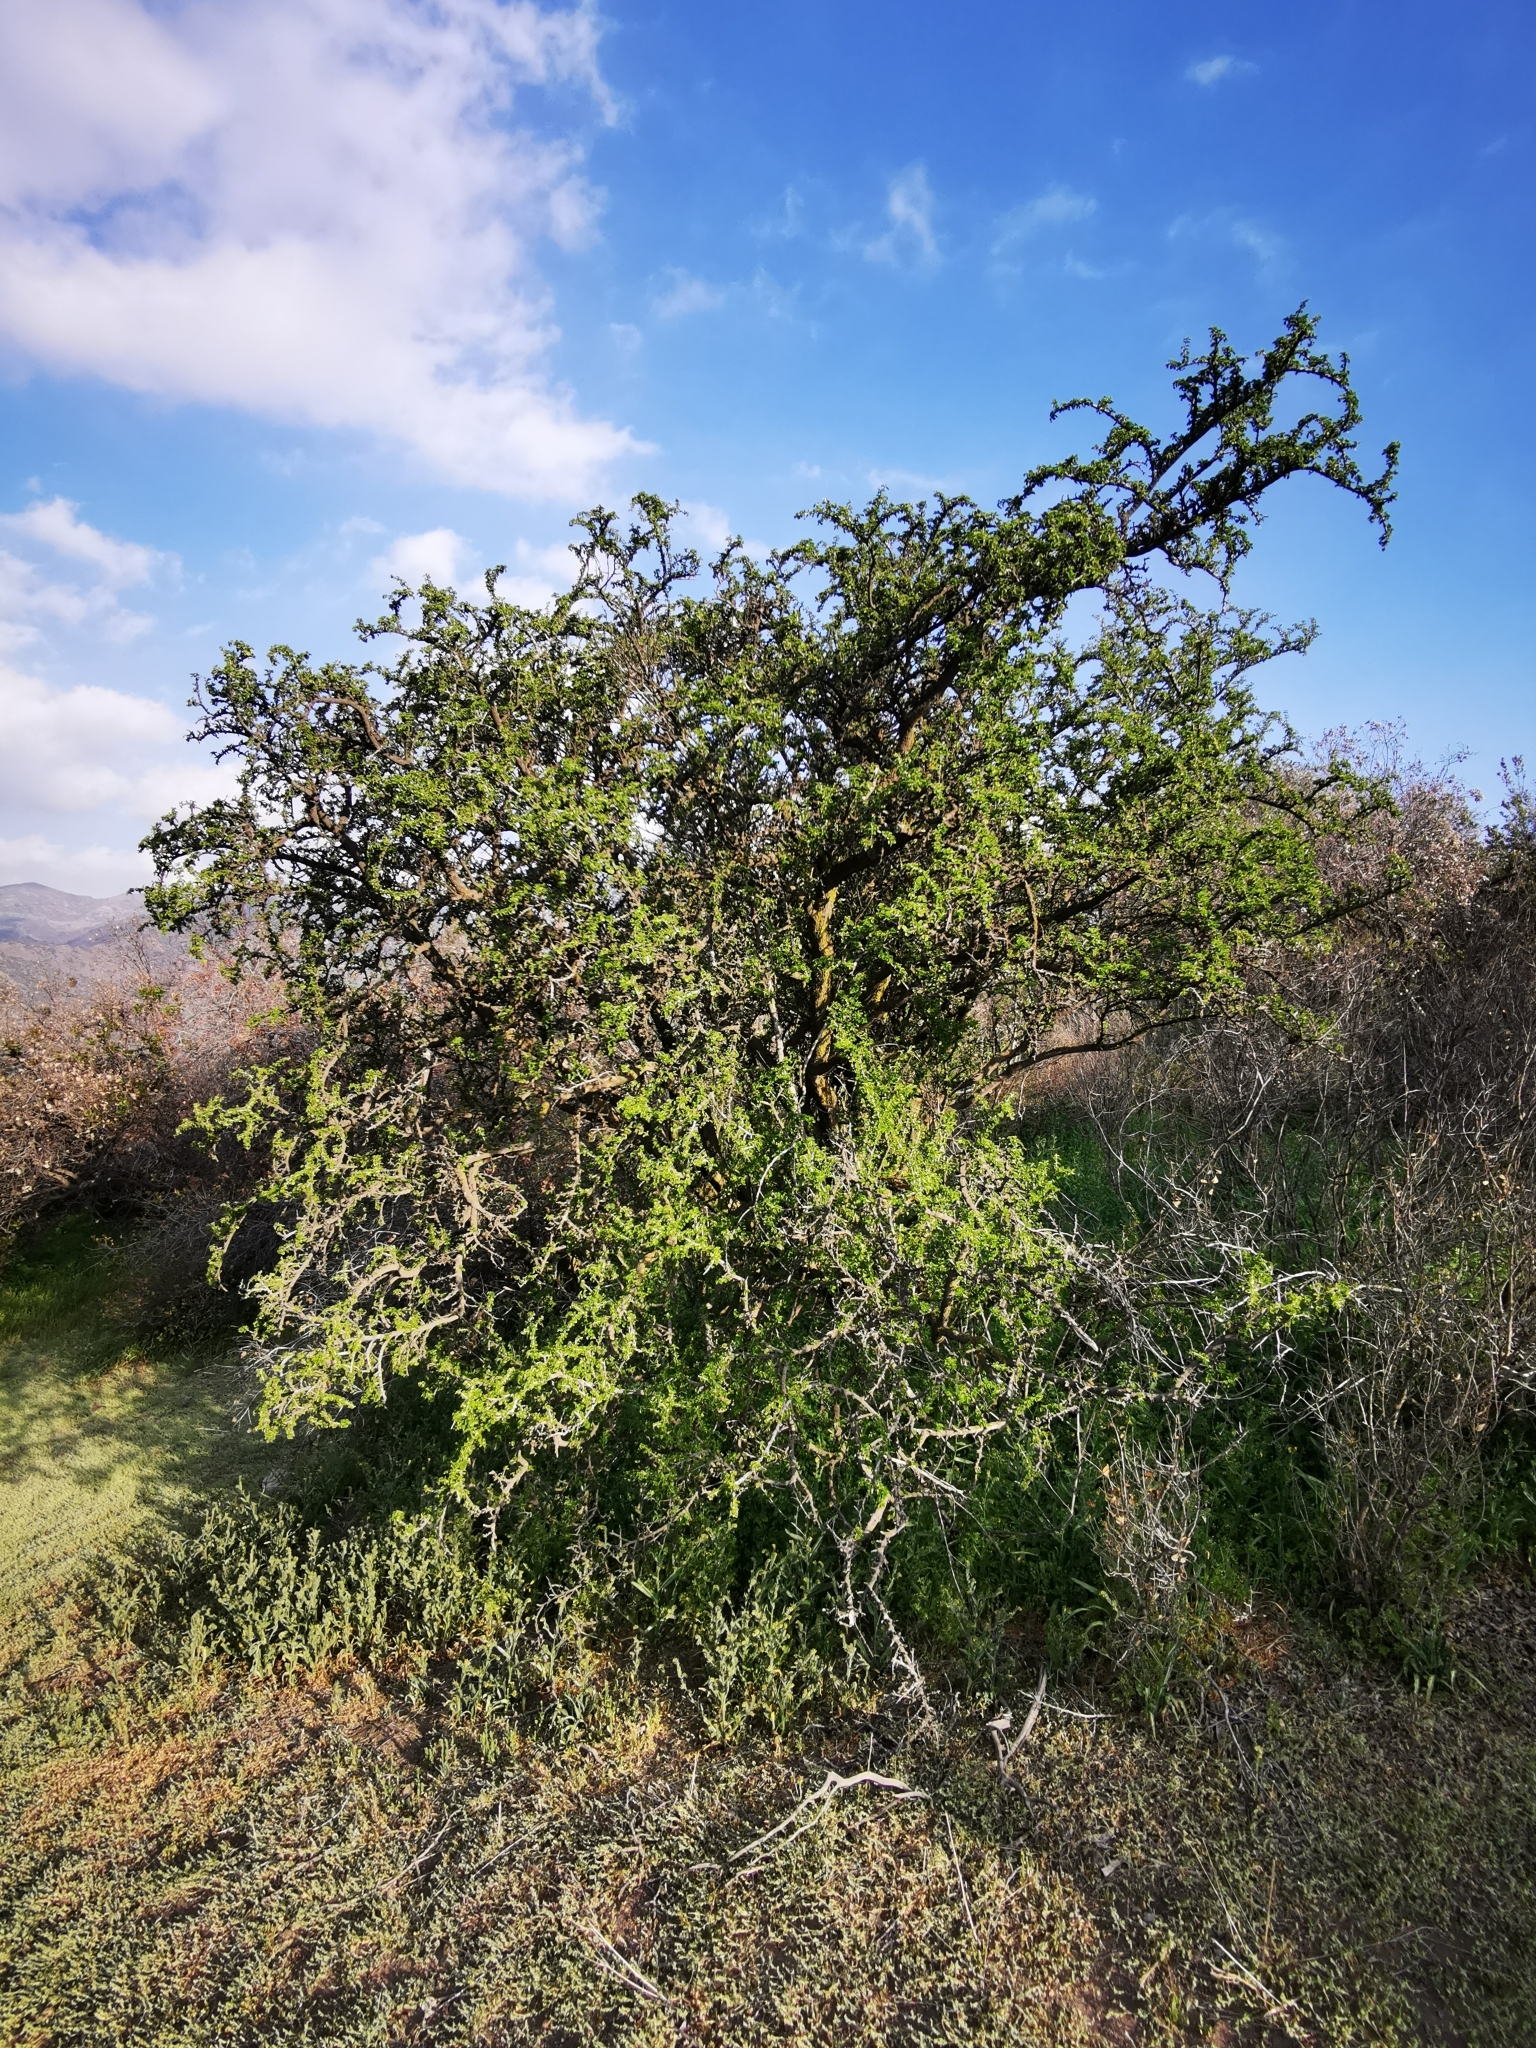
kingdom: Plantae
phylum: Tracheophyta
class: Magnoliopsida
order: Zygophyllales
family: Zygophyllaceae
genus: Porlieria
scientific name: Porlieria chilensis
